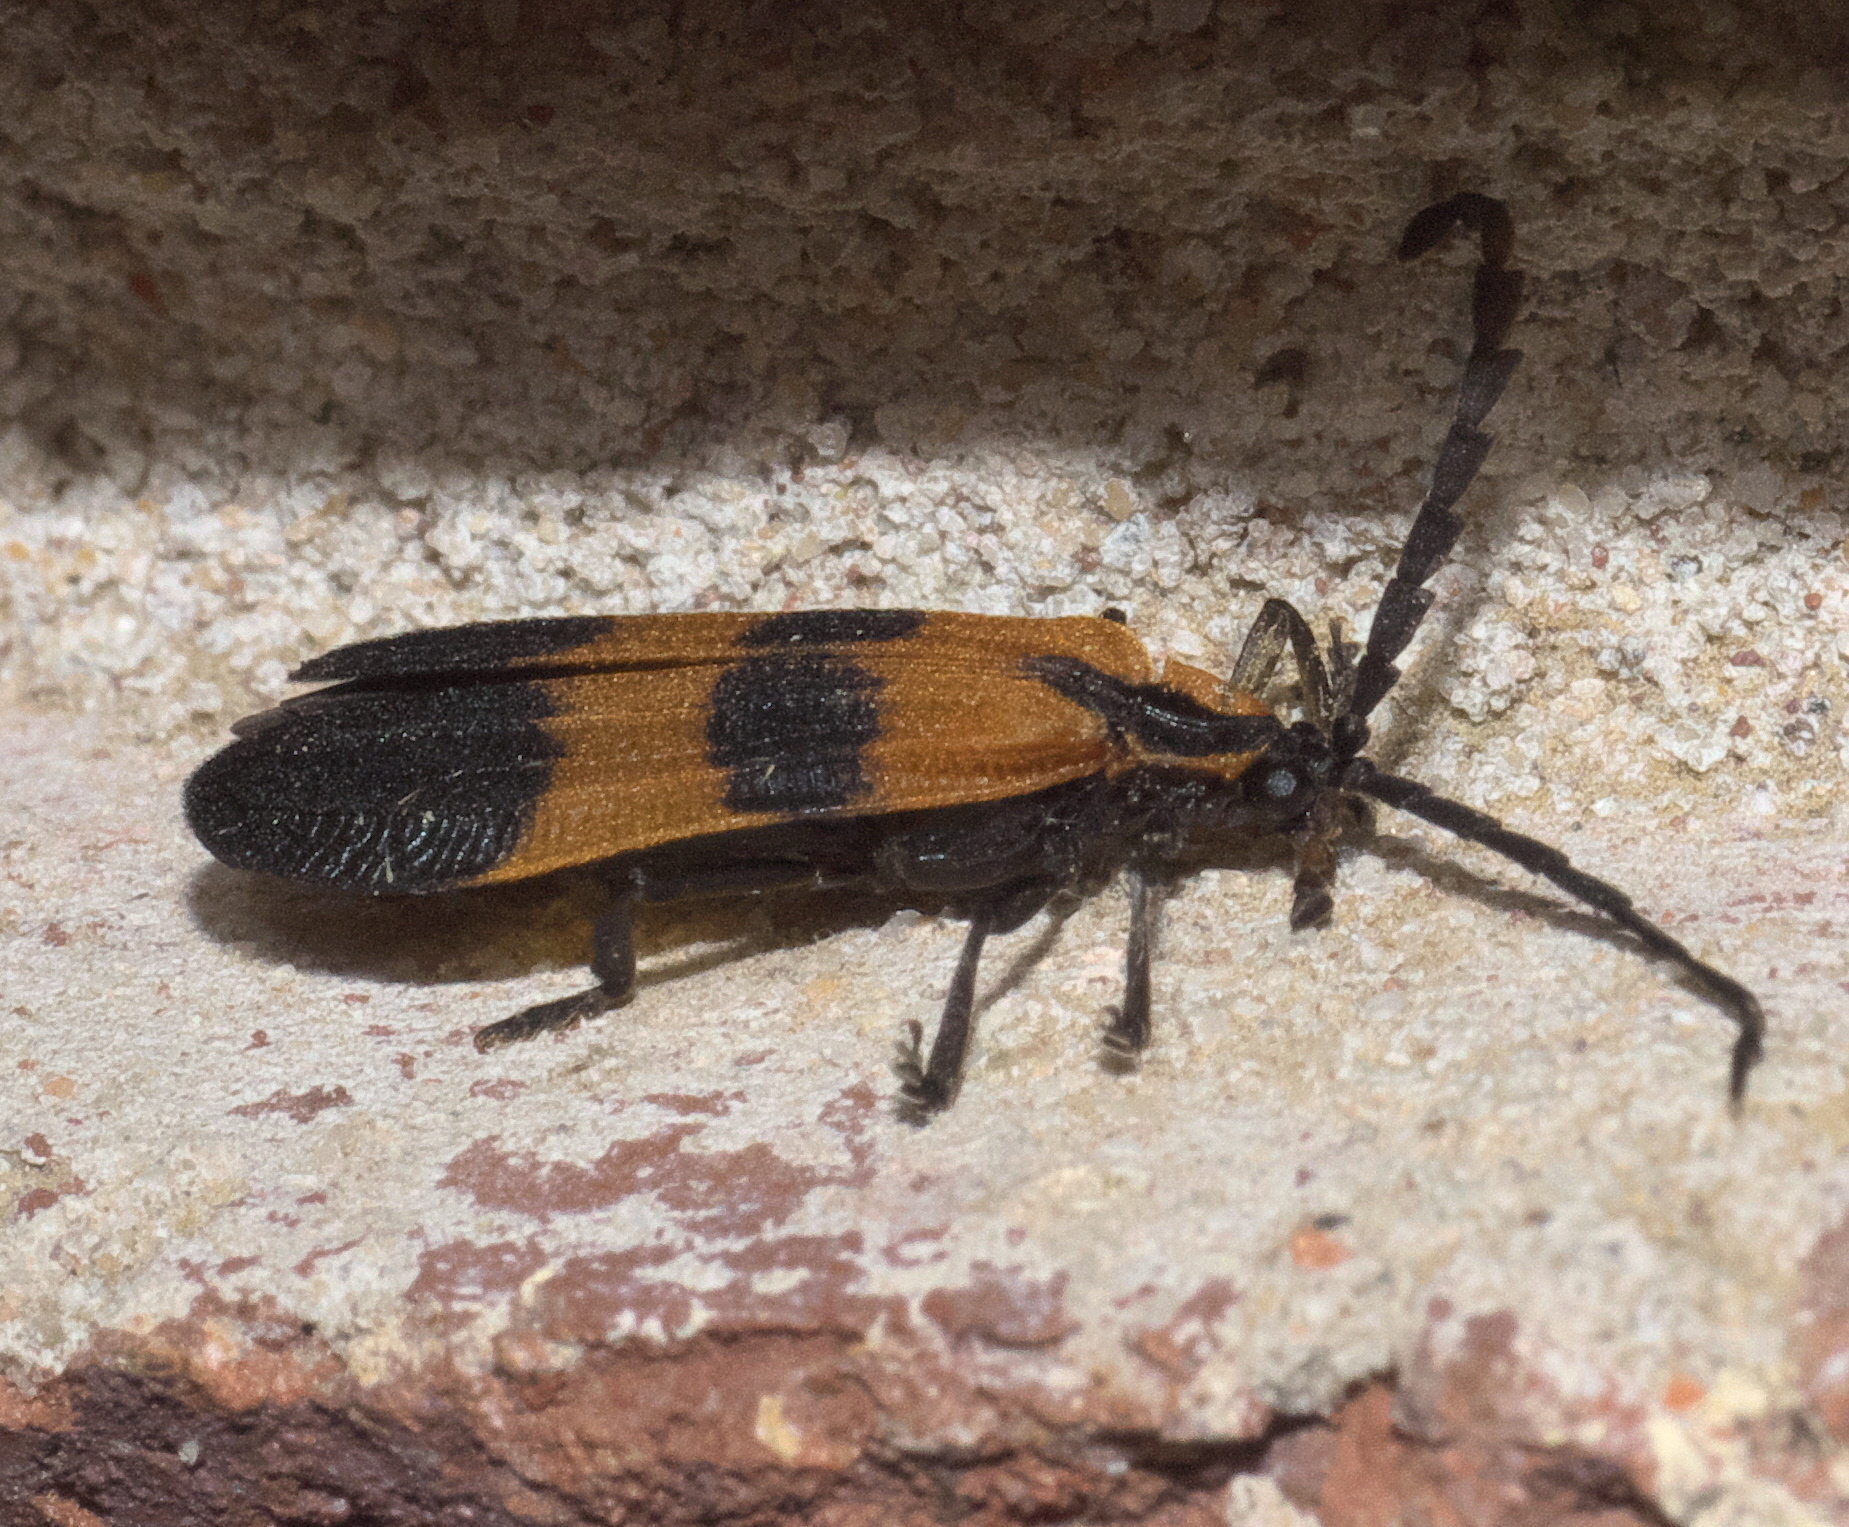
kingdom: Animalia
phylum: Arthropoda
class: Insecta
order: Coleoptera
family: Lycidae
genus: Calopteron
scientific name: Calopteron discrepans
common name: Banded net-winged beetle
